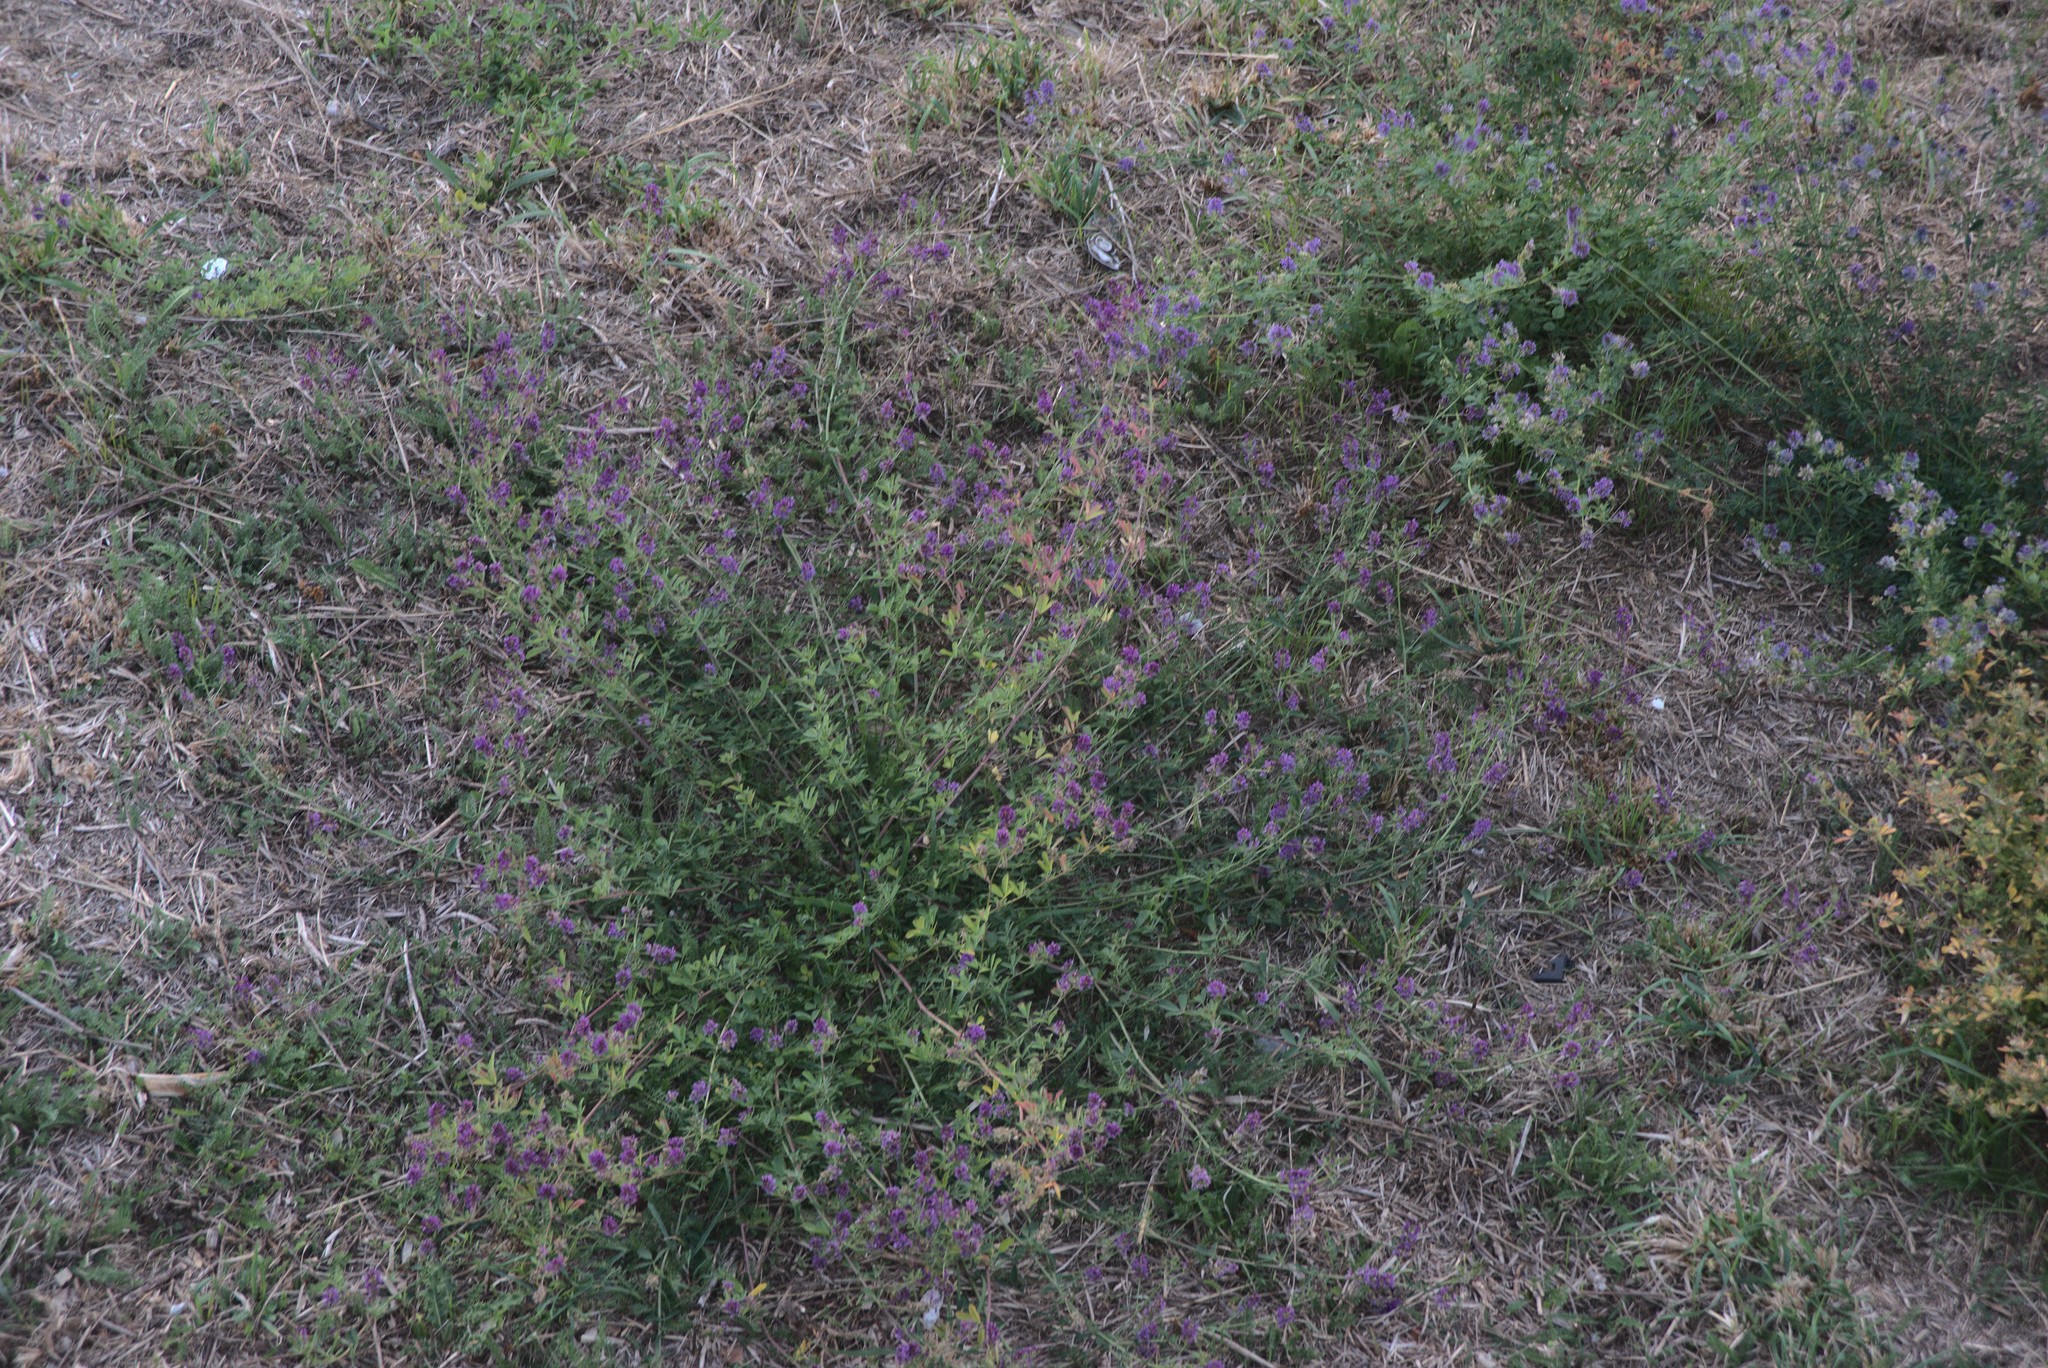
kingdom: Plantae
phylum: Tracheophyta
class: Magnoliopsida
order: Fabales
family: Fabaceae
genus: Medicago
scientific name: Medicago sativa
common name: Alfalfa
